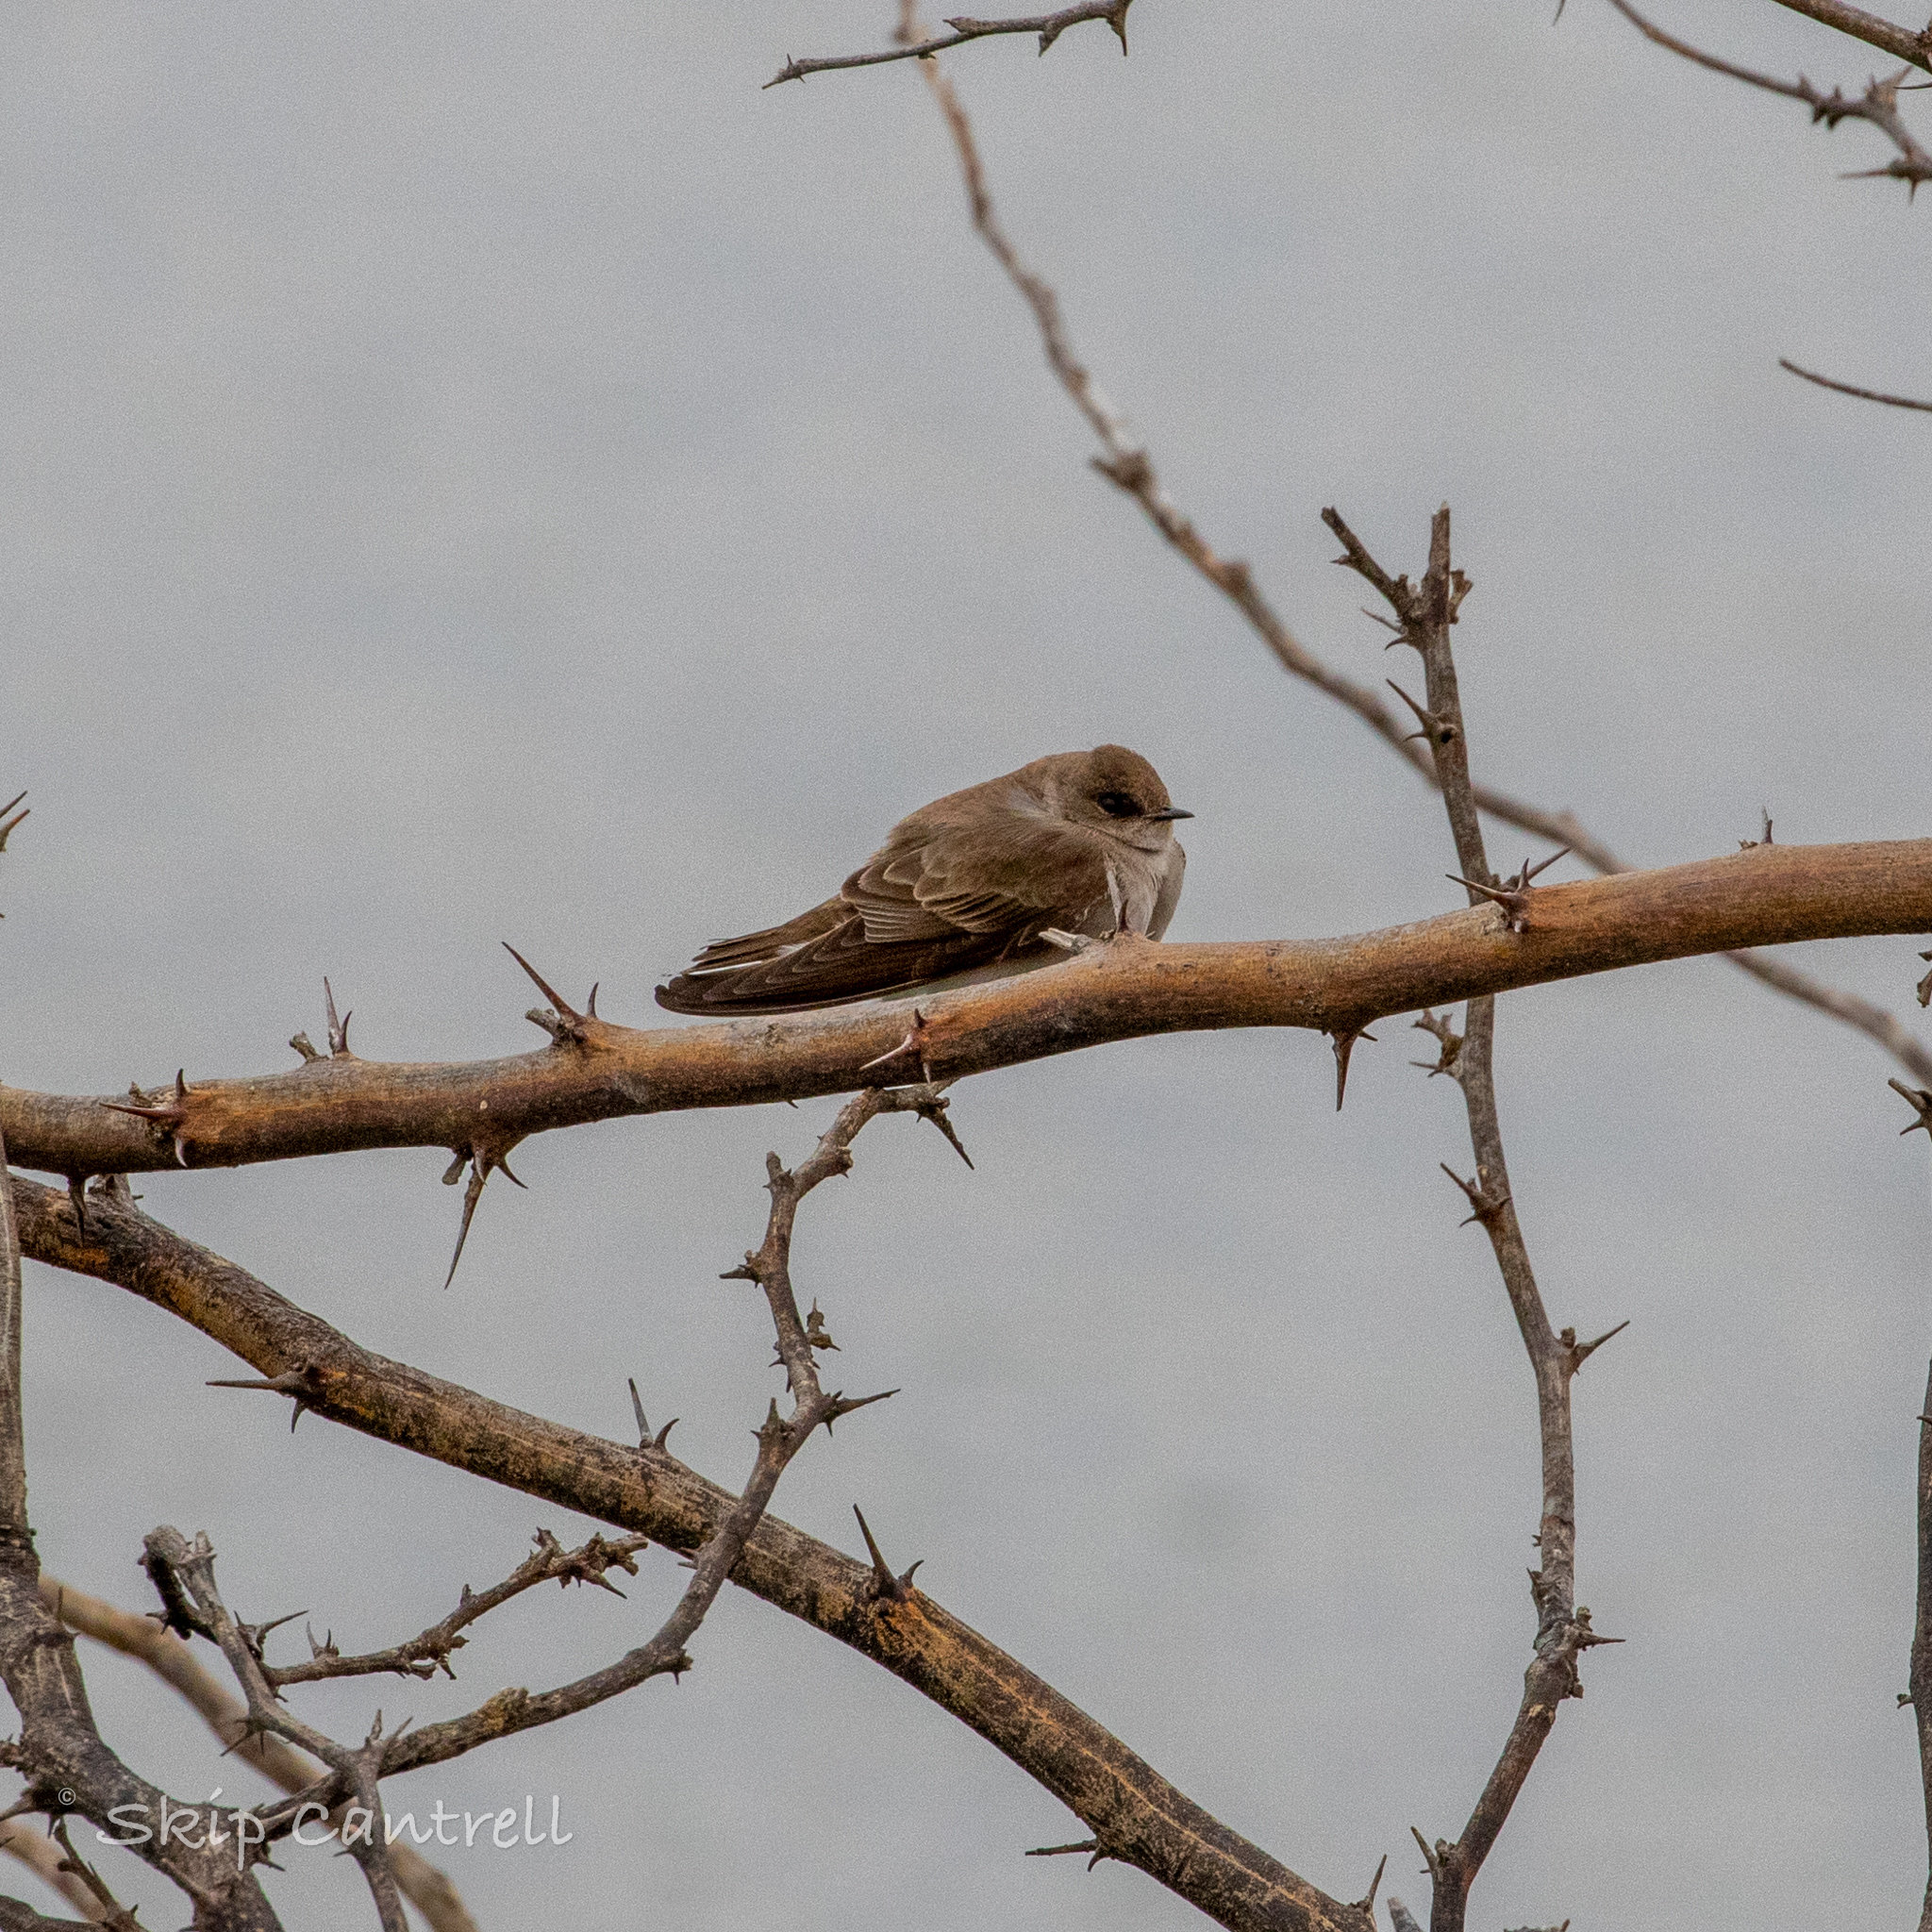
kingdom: Animalia
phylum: Chordata
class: Aves
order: Passeriformes
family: Hirundinidae
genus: Stelgidopteryx
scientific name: Stelgidopteryx serripennis
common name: Northern rough-winged swallow
